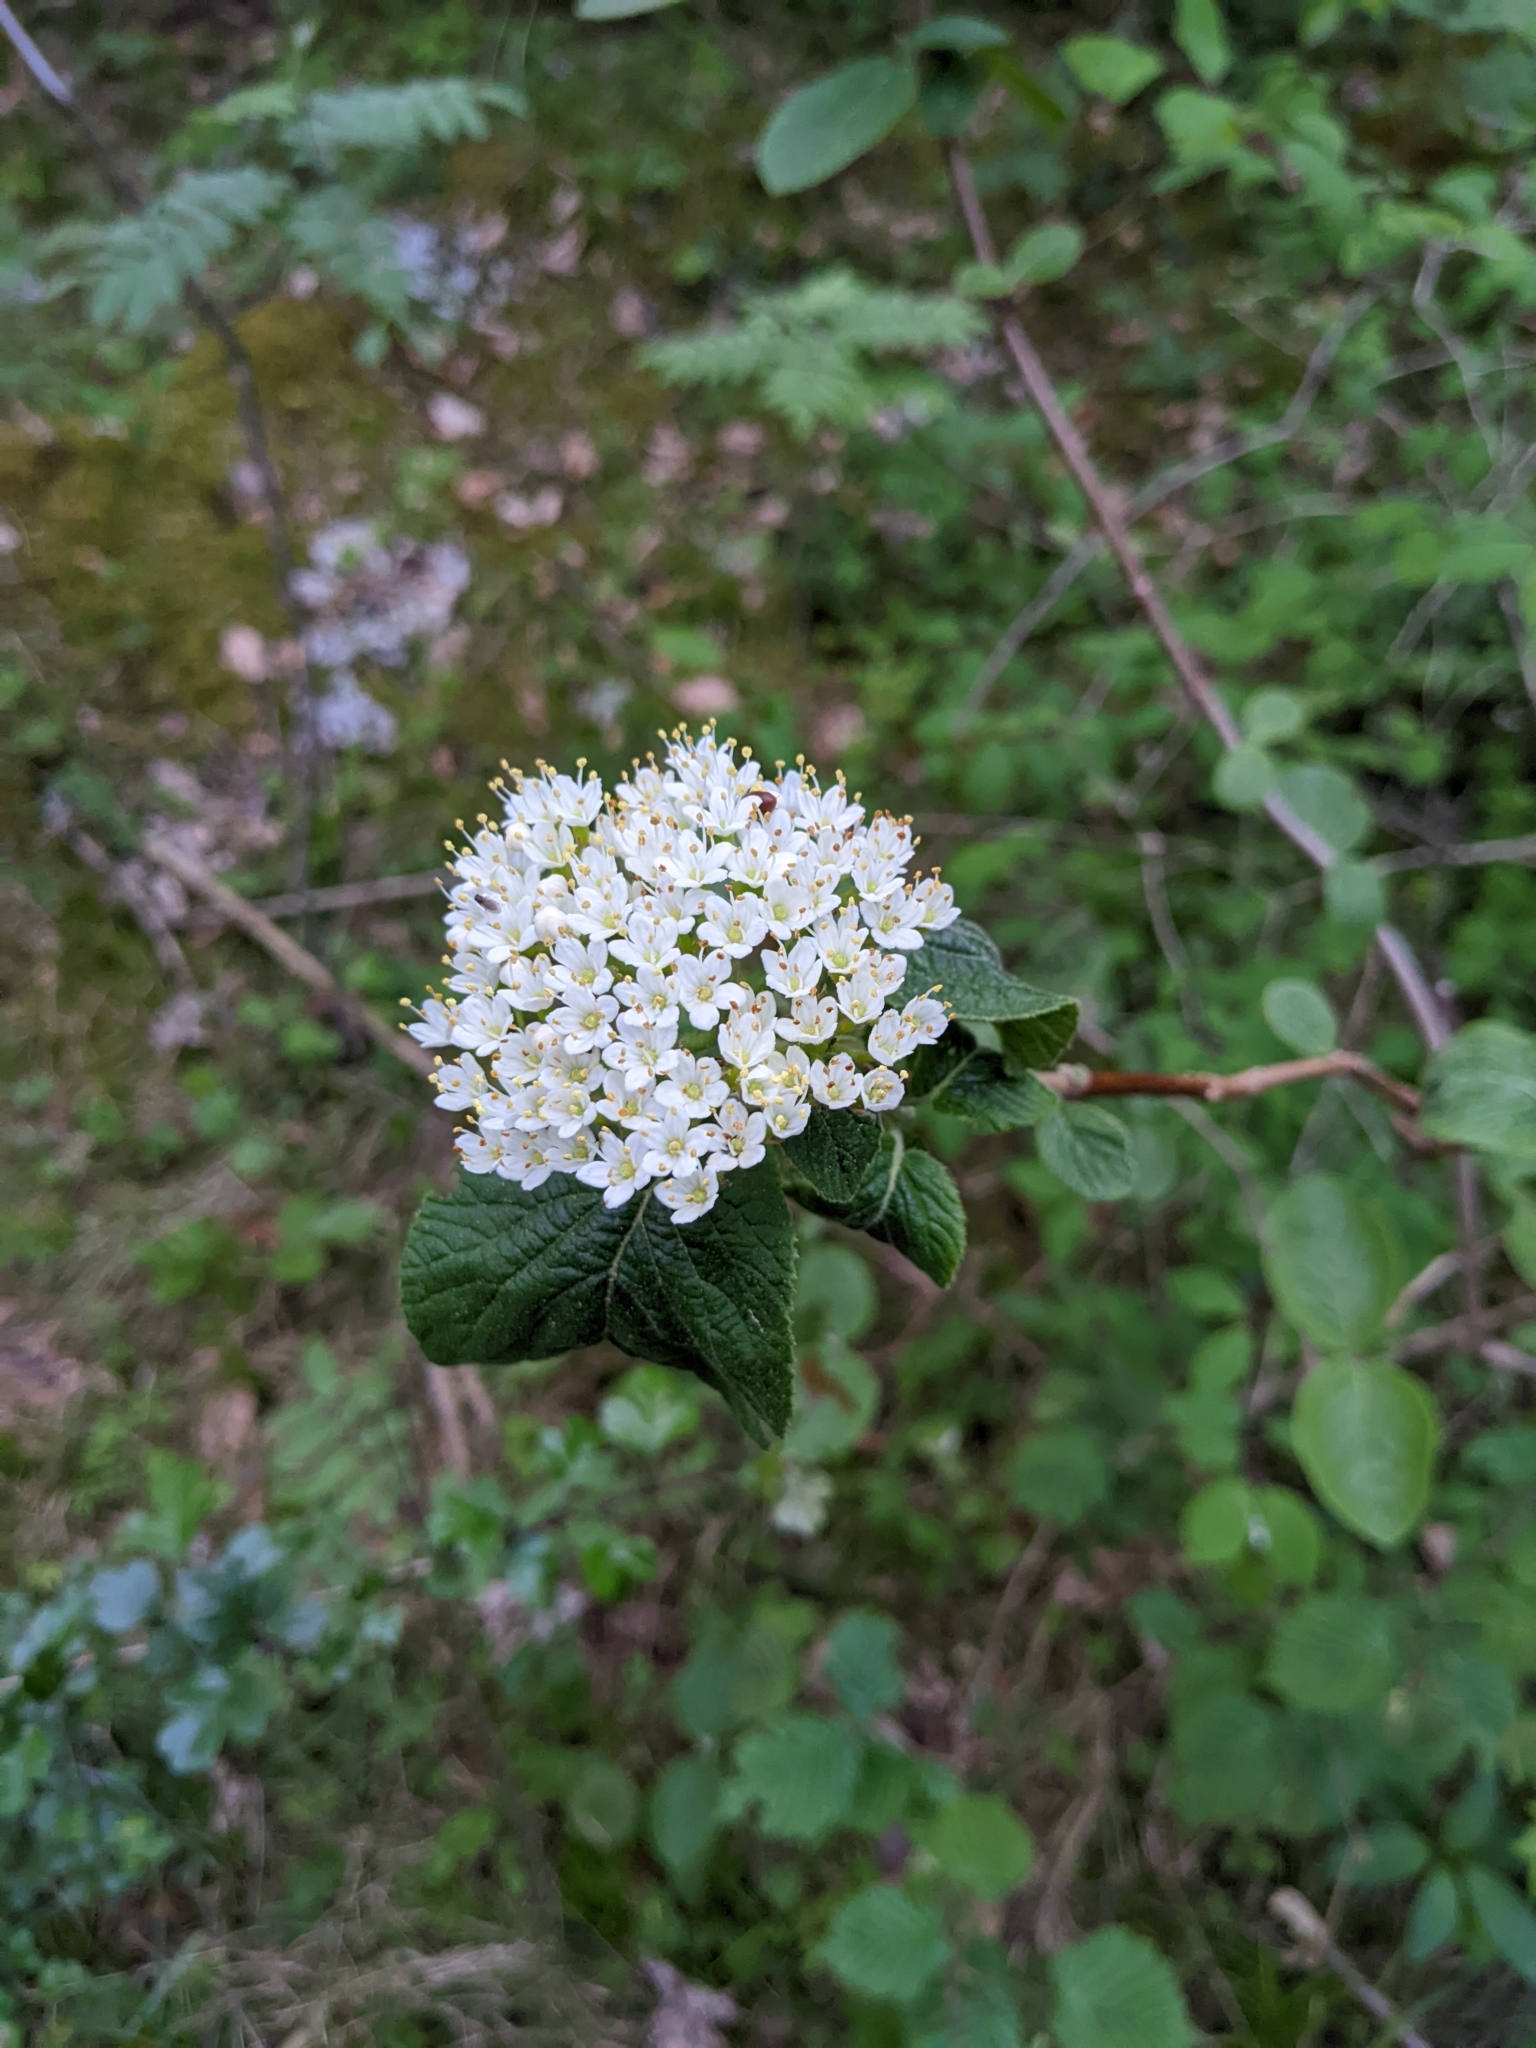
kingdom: Plantae
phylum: Tracheophyta
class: Magnoliopsida
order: Dipsacales
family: Viburnaceae
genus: Viburnum
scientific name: Viburnum lantana
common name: Wayfaring tree
